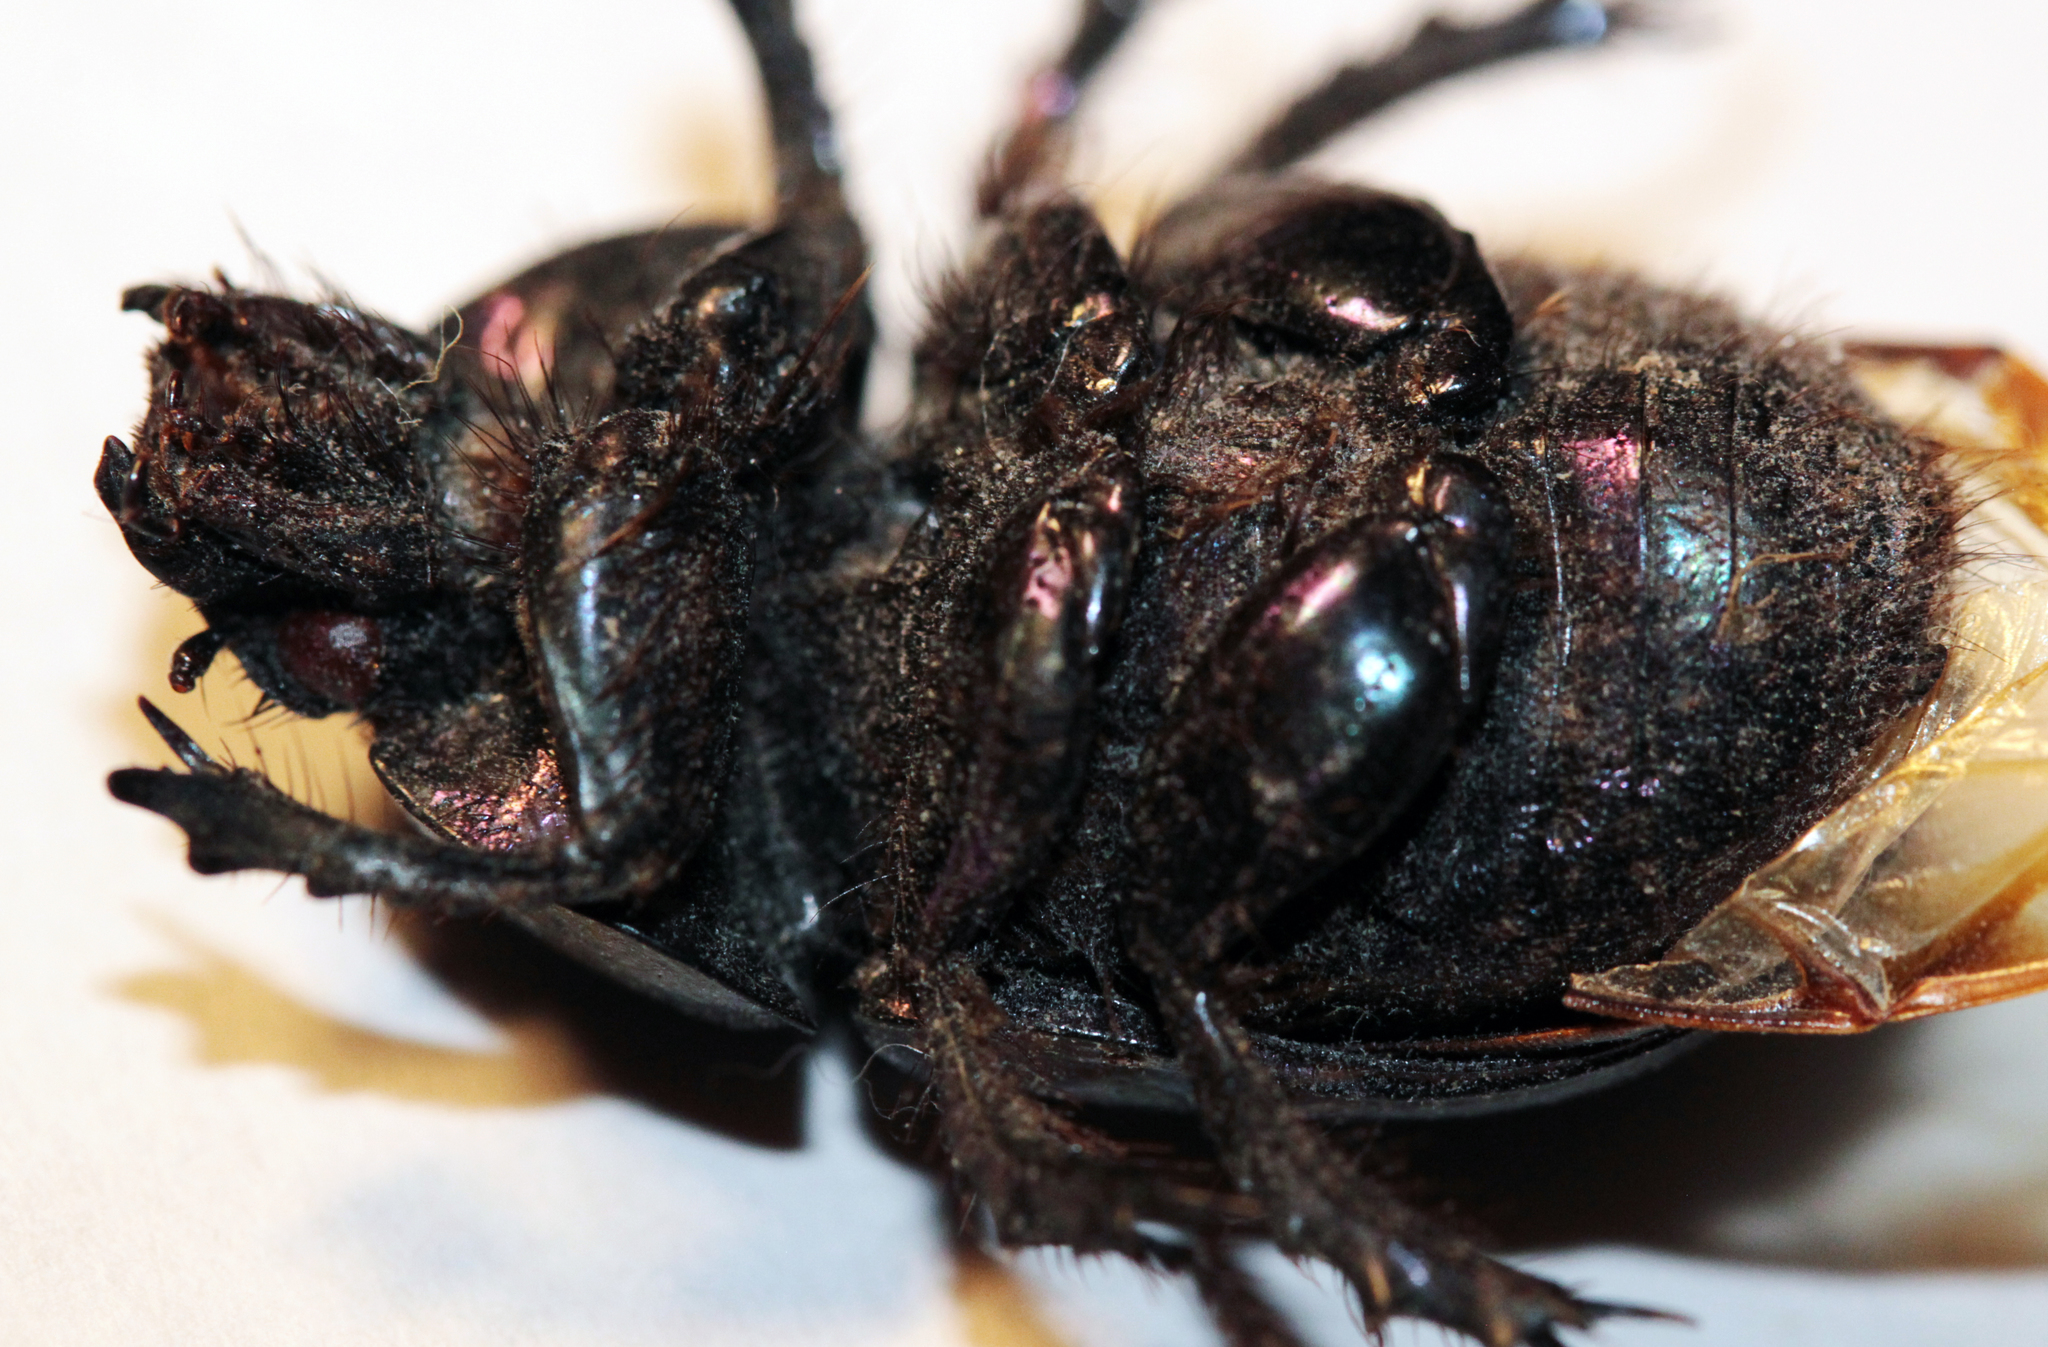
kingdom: Animalia
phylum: Arthropoda
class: Insecta
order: Coleoptera
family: Geotrupidae
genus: Anoplotrupes
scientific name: Anoplotrupes hornii
